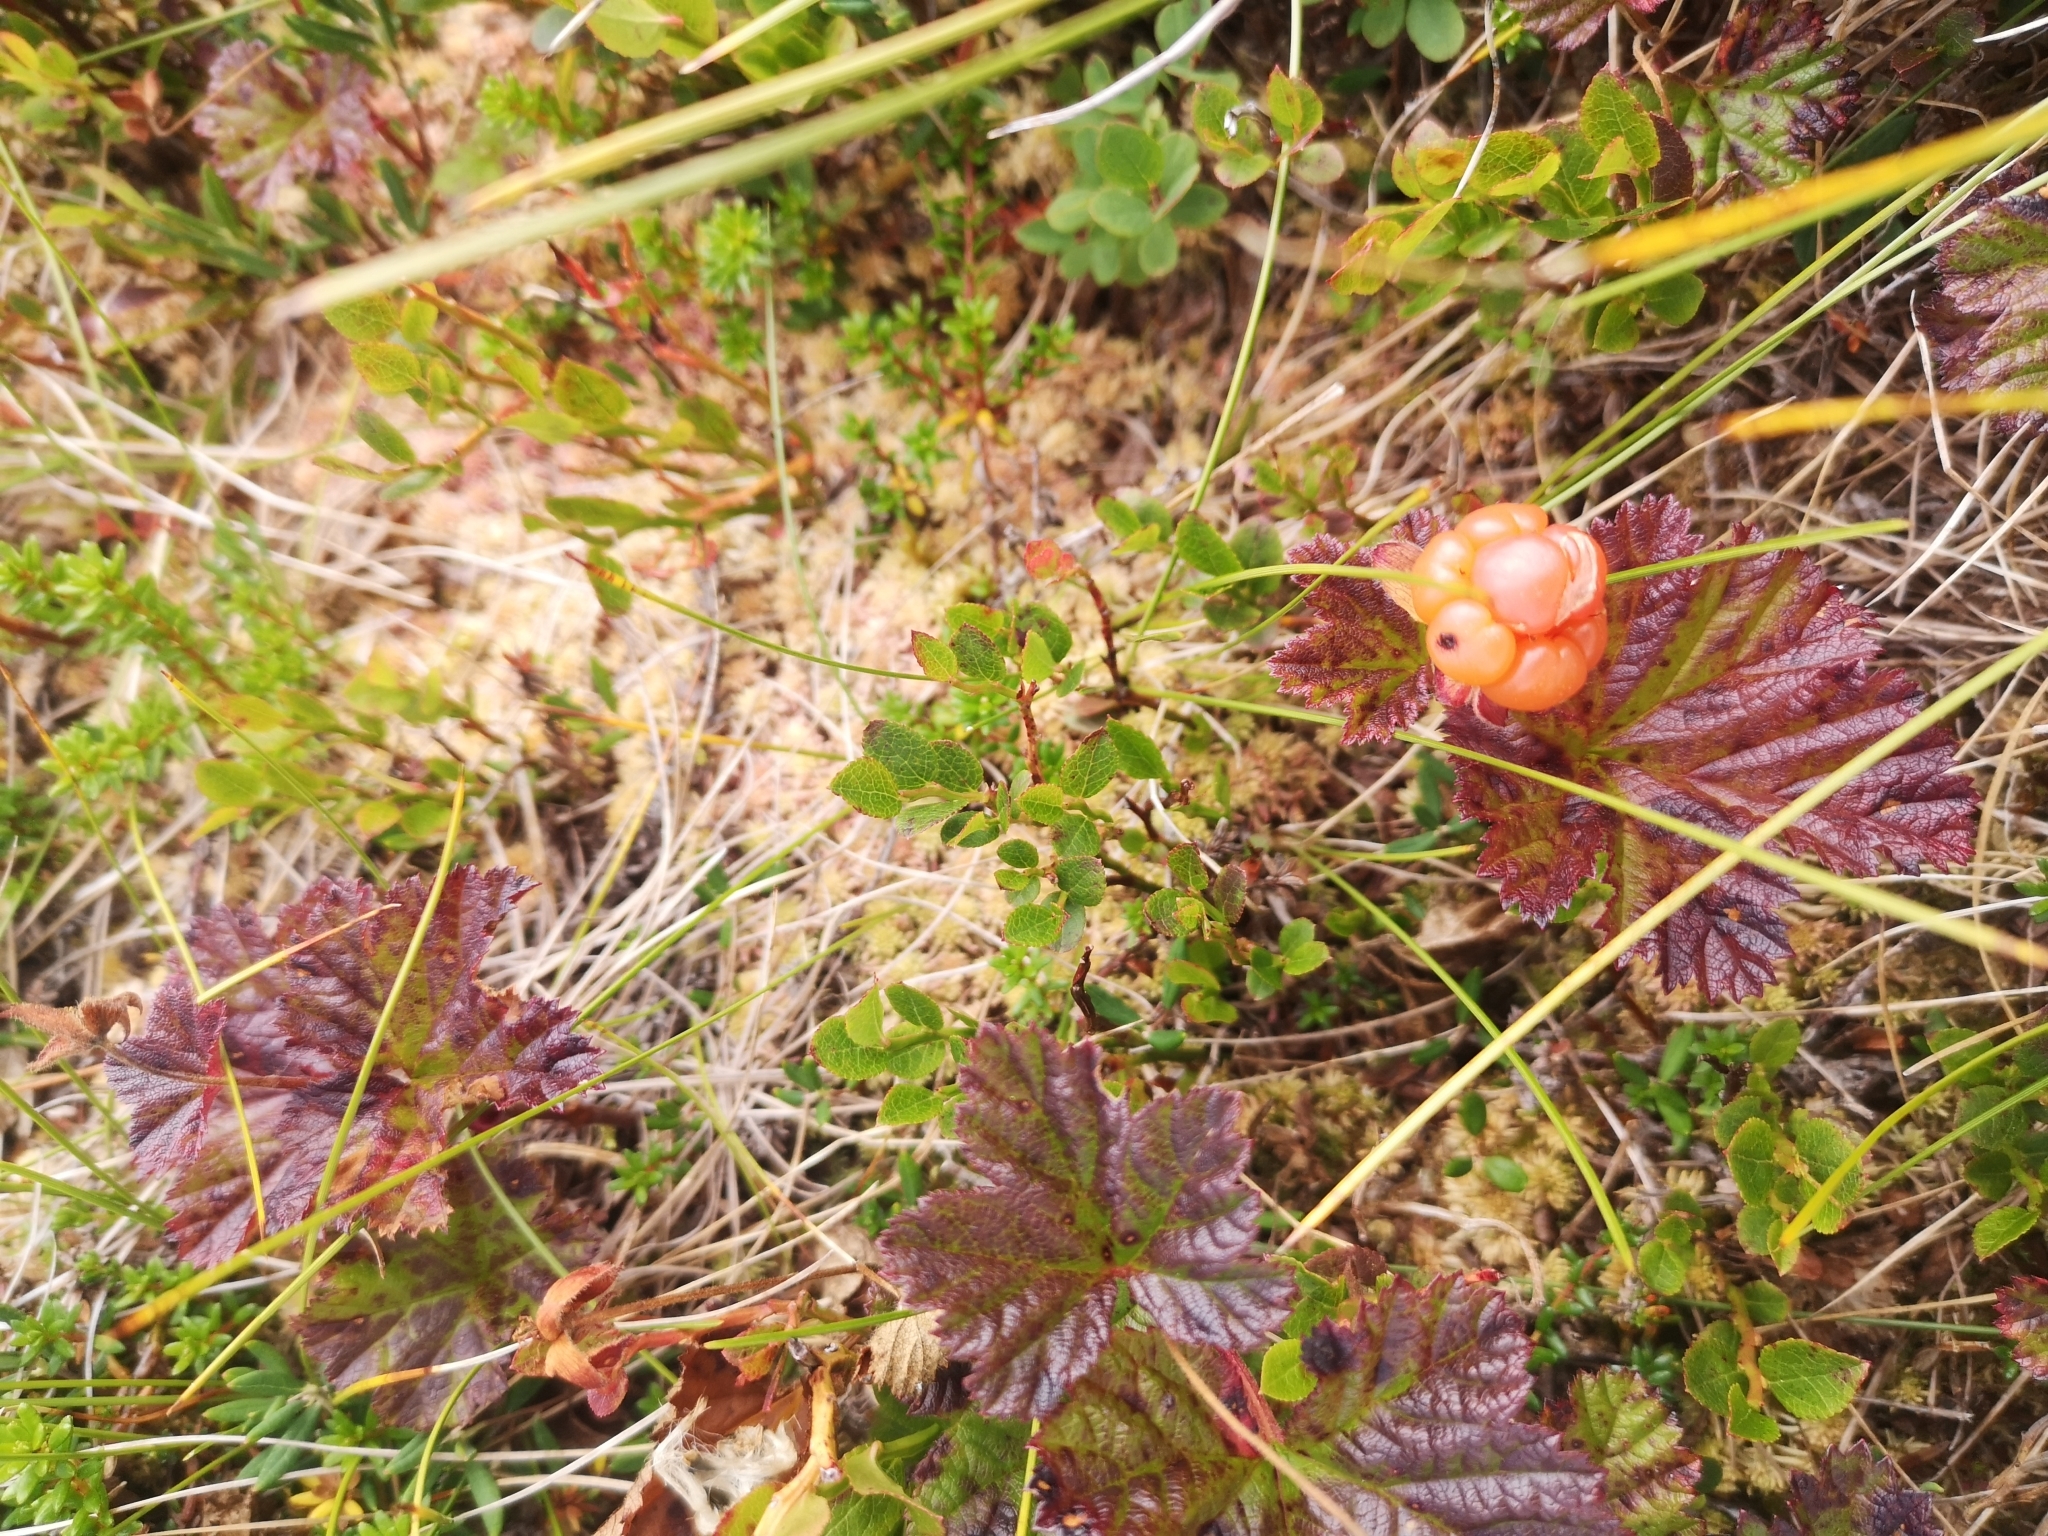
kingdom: Plantae
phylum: Tracheophyta
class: Magnoliopsida
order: Rosales
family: Rosaceae
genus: Rubus
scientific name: Rubus chamaemorus
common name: Cloudberry
